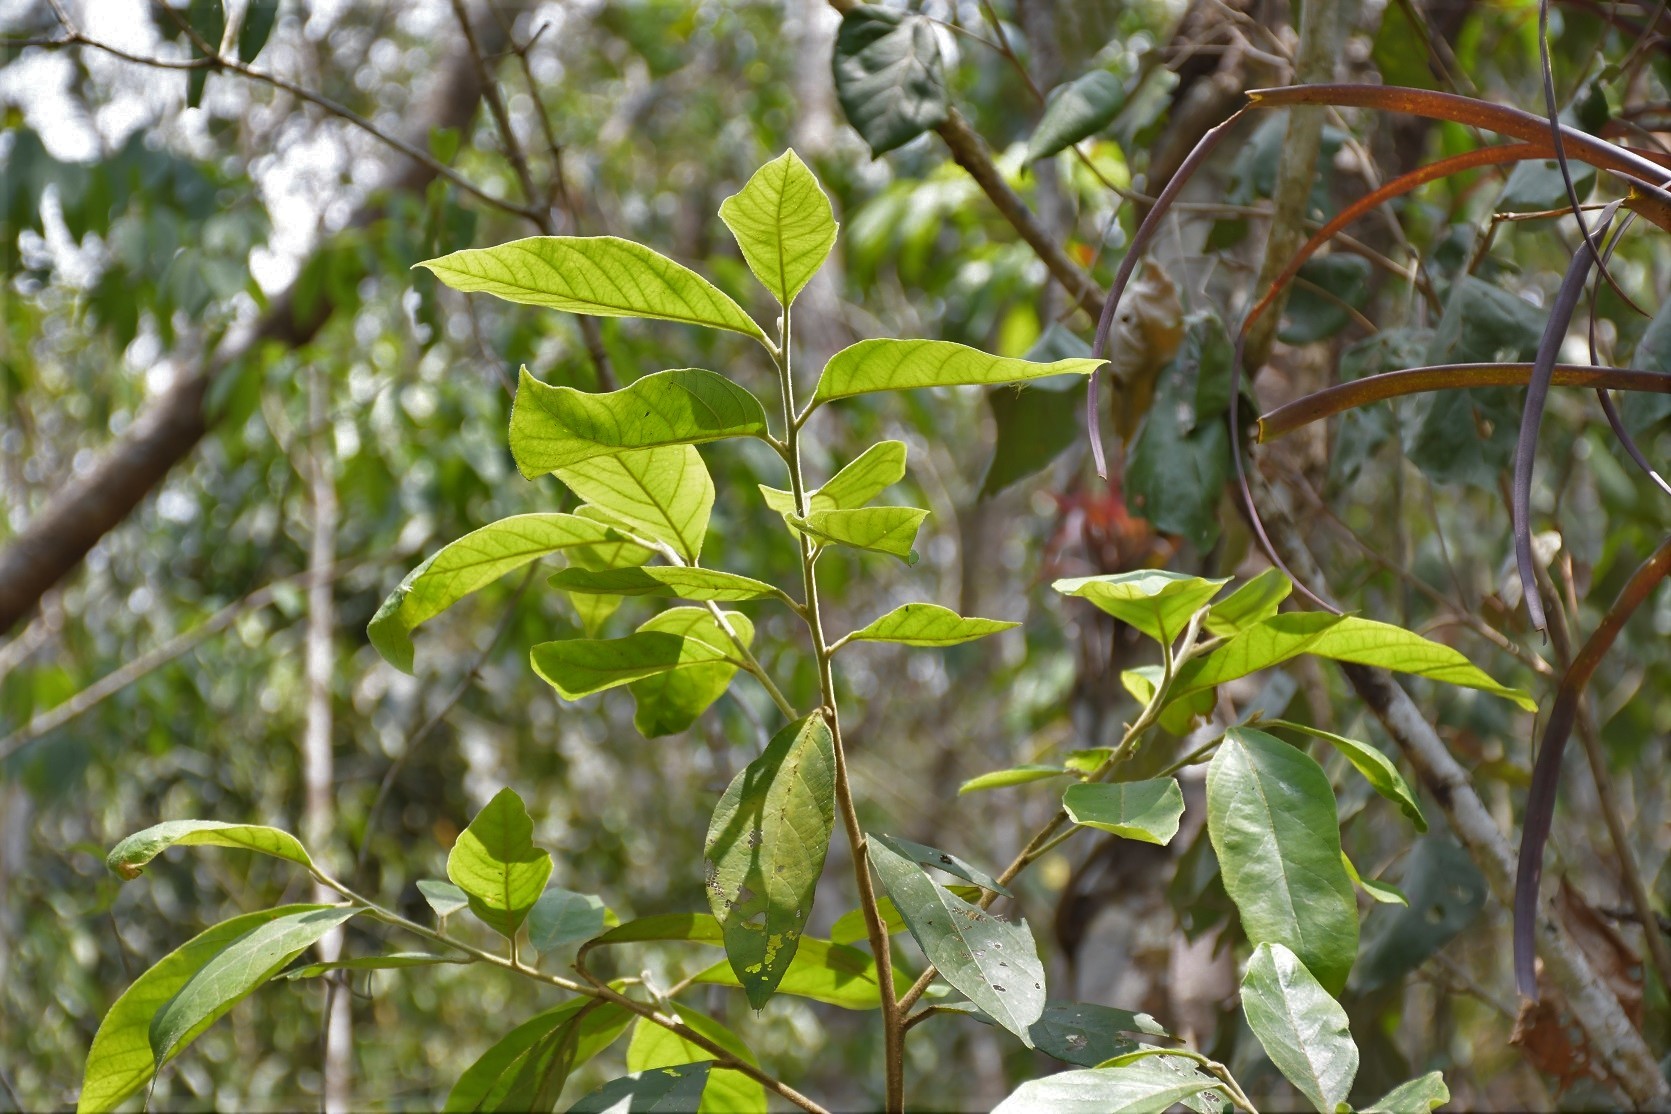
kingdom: Plantae
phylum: Tracheophyta
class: Magnoliopsida
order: Ericales
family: Styracaceae
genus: Styrax
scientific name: Styrax argenteus
